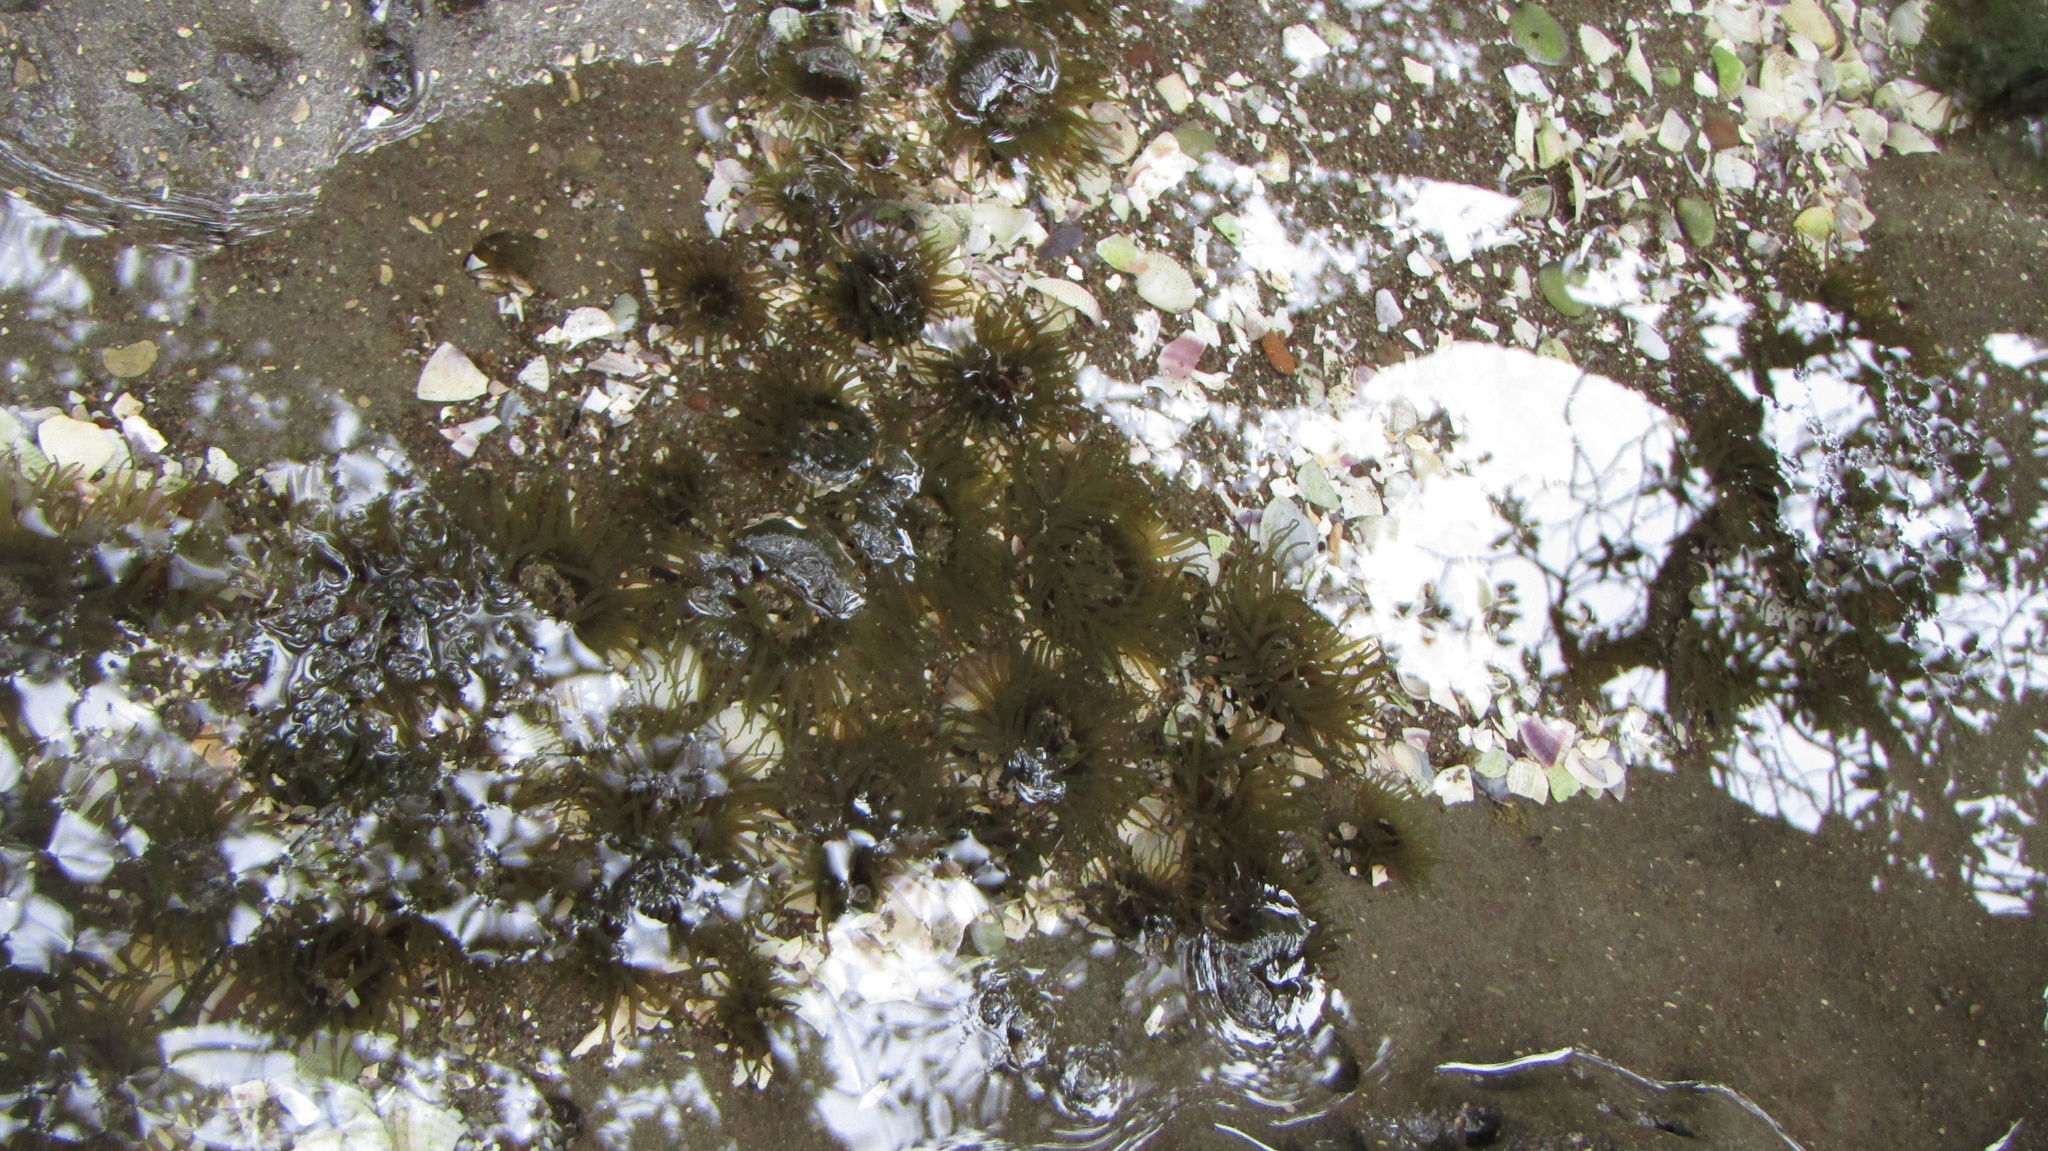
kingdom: Animalia
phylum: Cnidaria
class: Anthozoa
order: Actiniaria
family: Actiniidae
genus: Isactinia
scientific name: Isactinia olivacea
